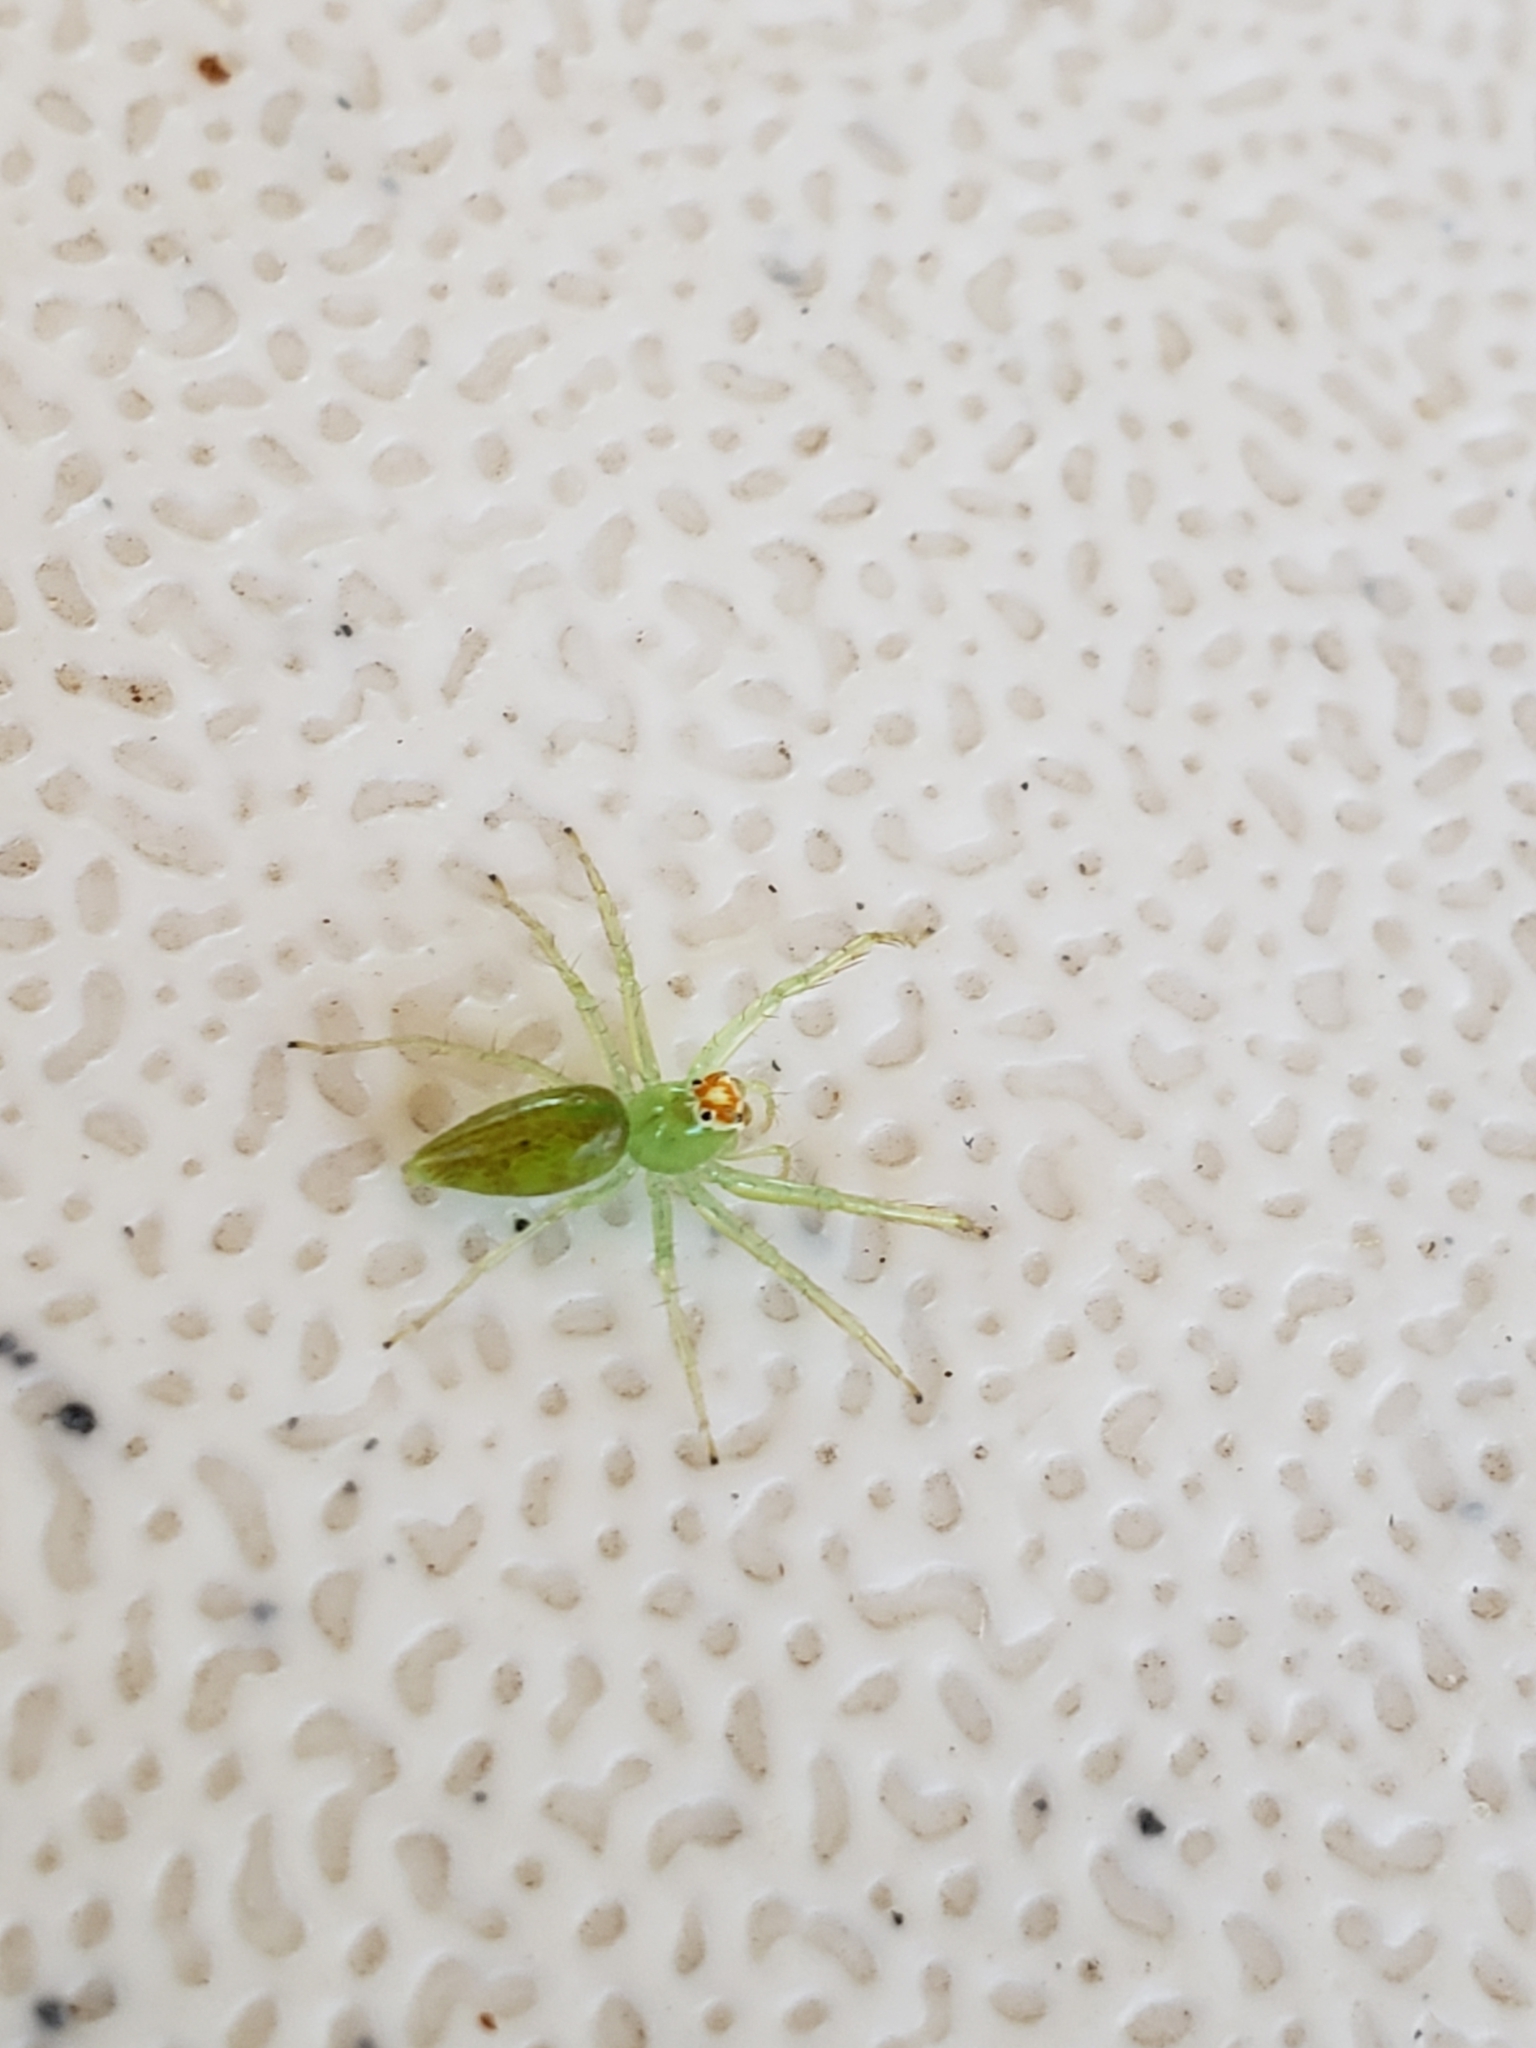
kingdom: Animalia
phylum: Arthropoda
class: Arachnida
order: Araneae
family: Salticidae
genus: Lyssomanes
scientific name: Lyssomanes viridis
